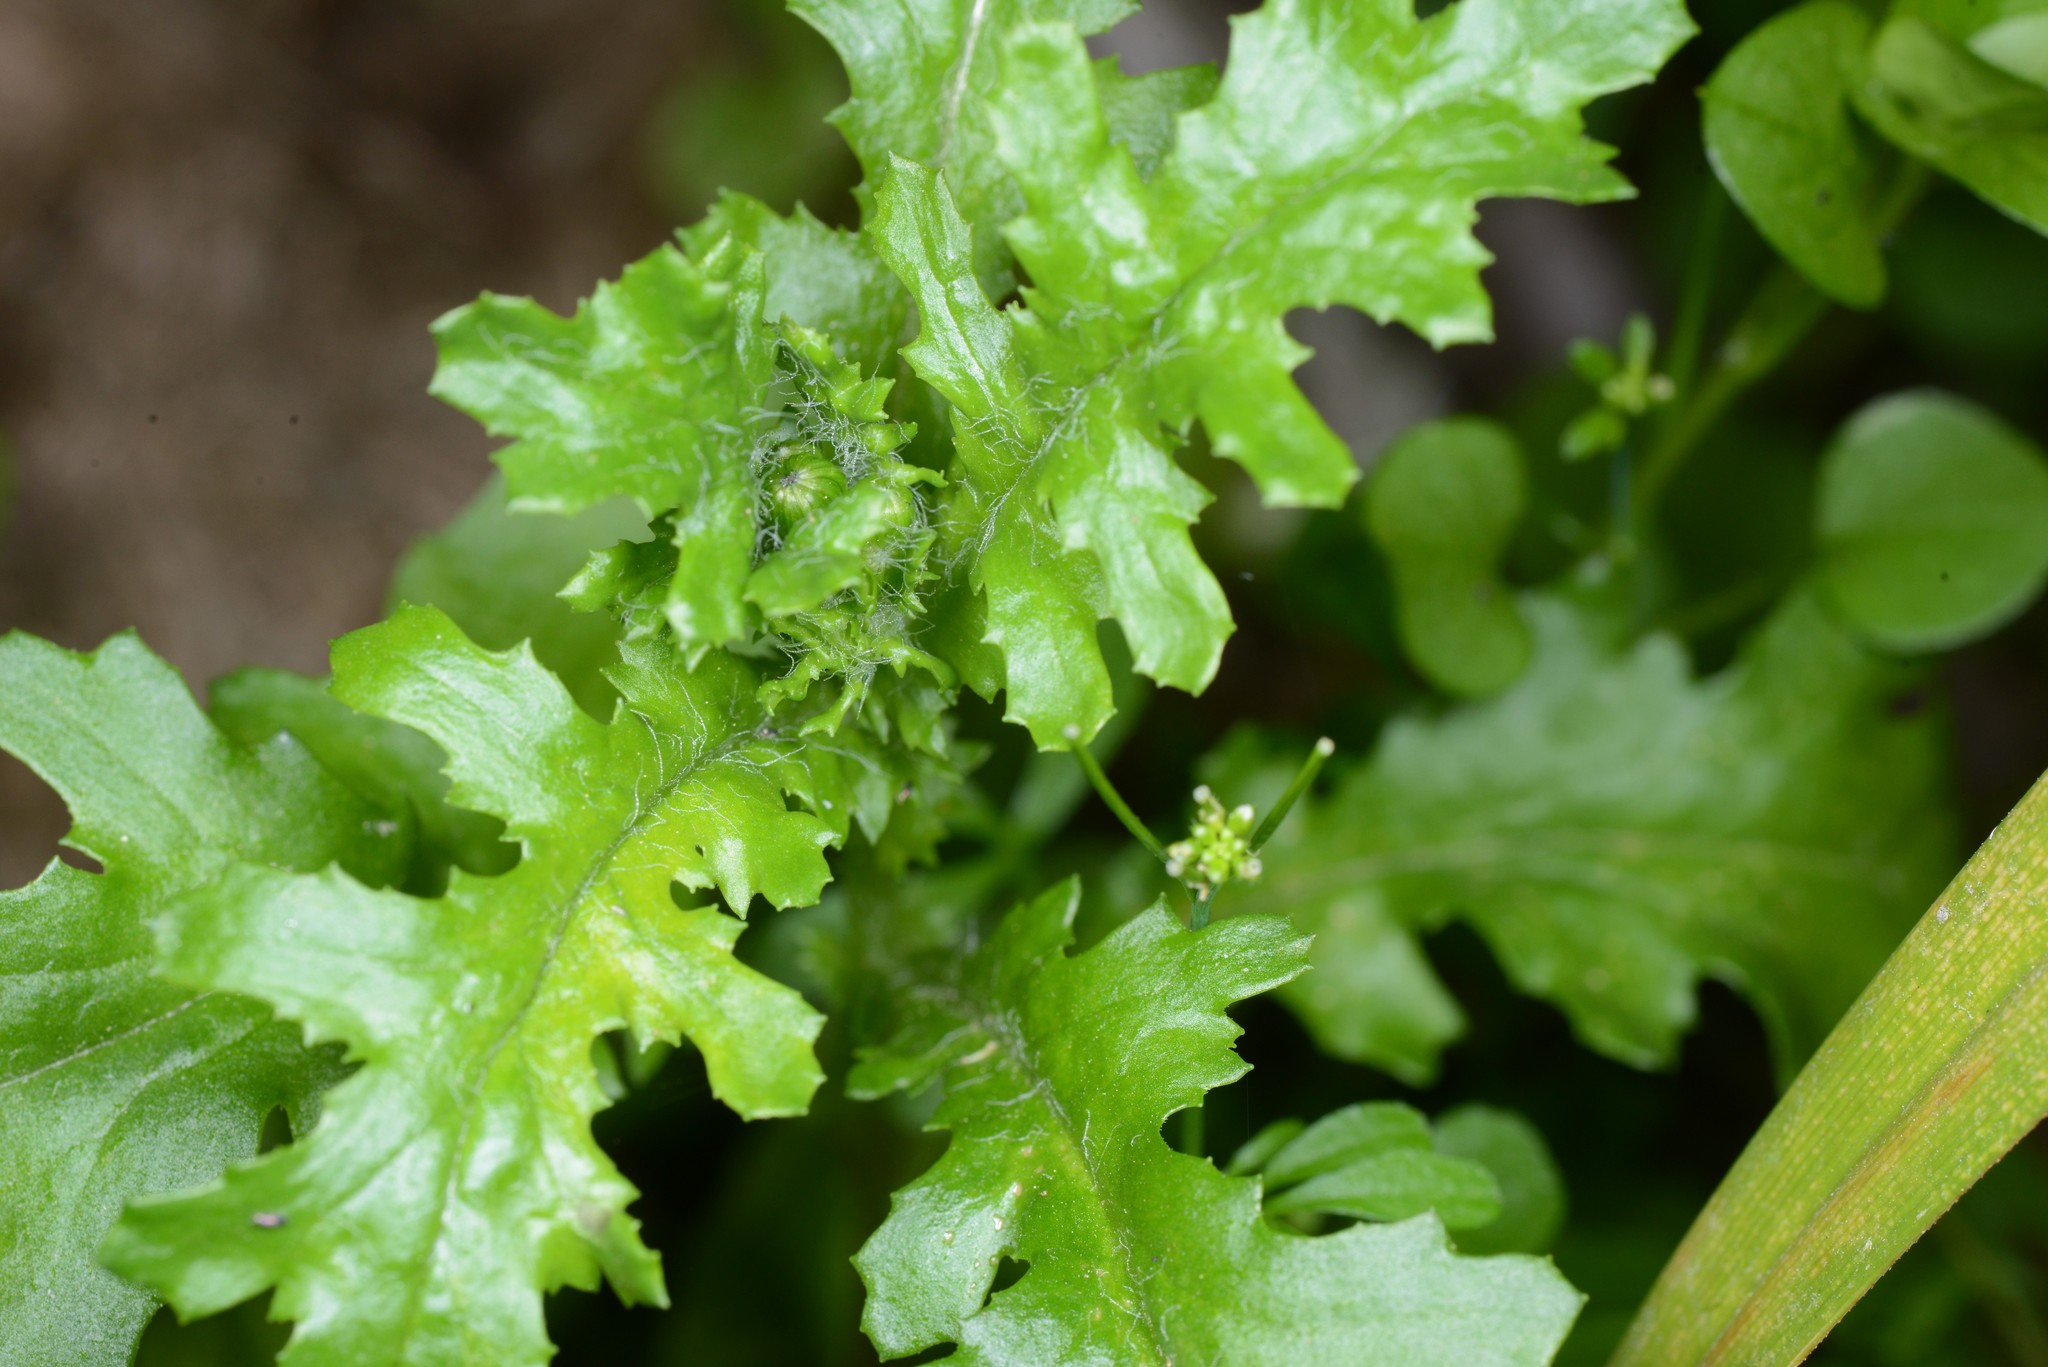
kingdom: Plantae
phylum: Tracheophyta
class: Magnoliopsida
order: Asterales
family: Asteraceae
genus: Senecio
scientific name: Senecio vulgaris
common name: Old-man-in-the-spring
